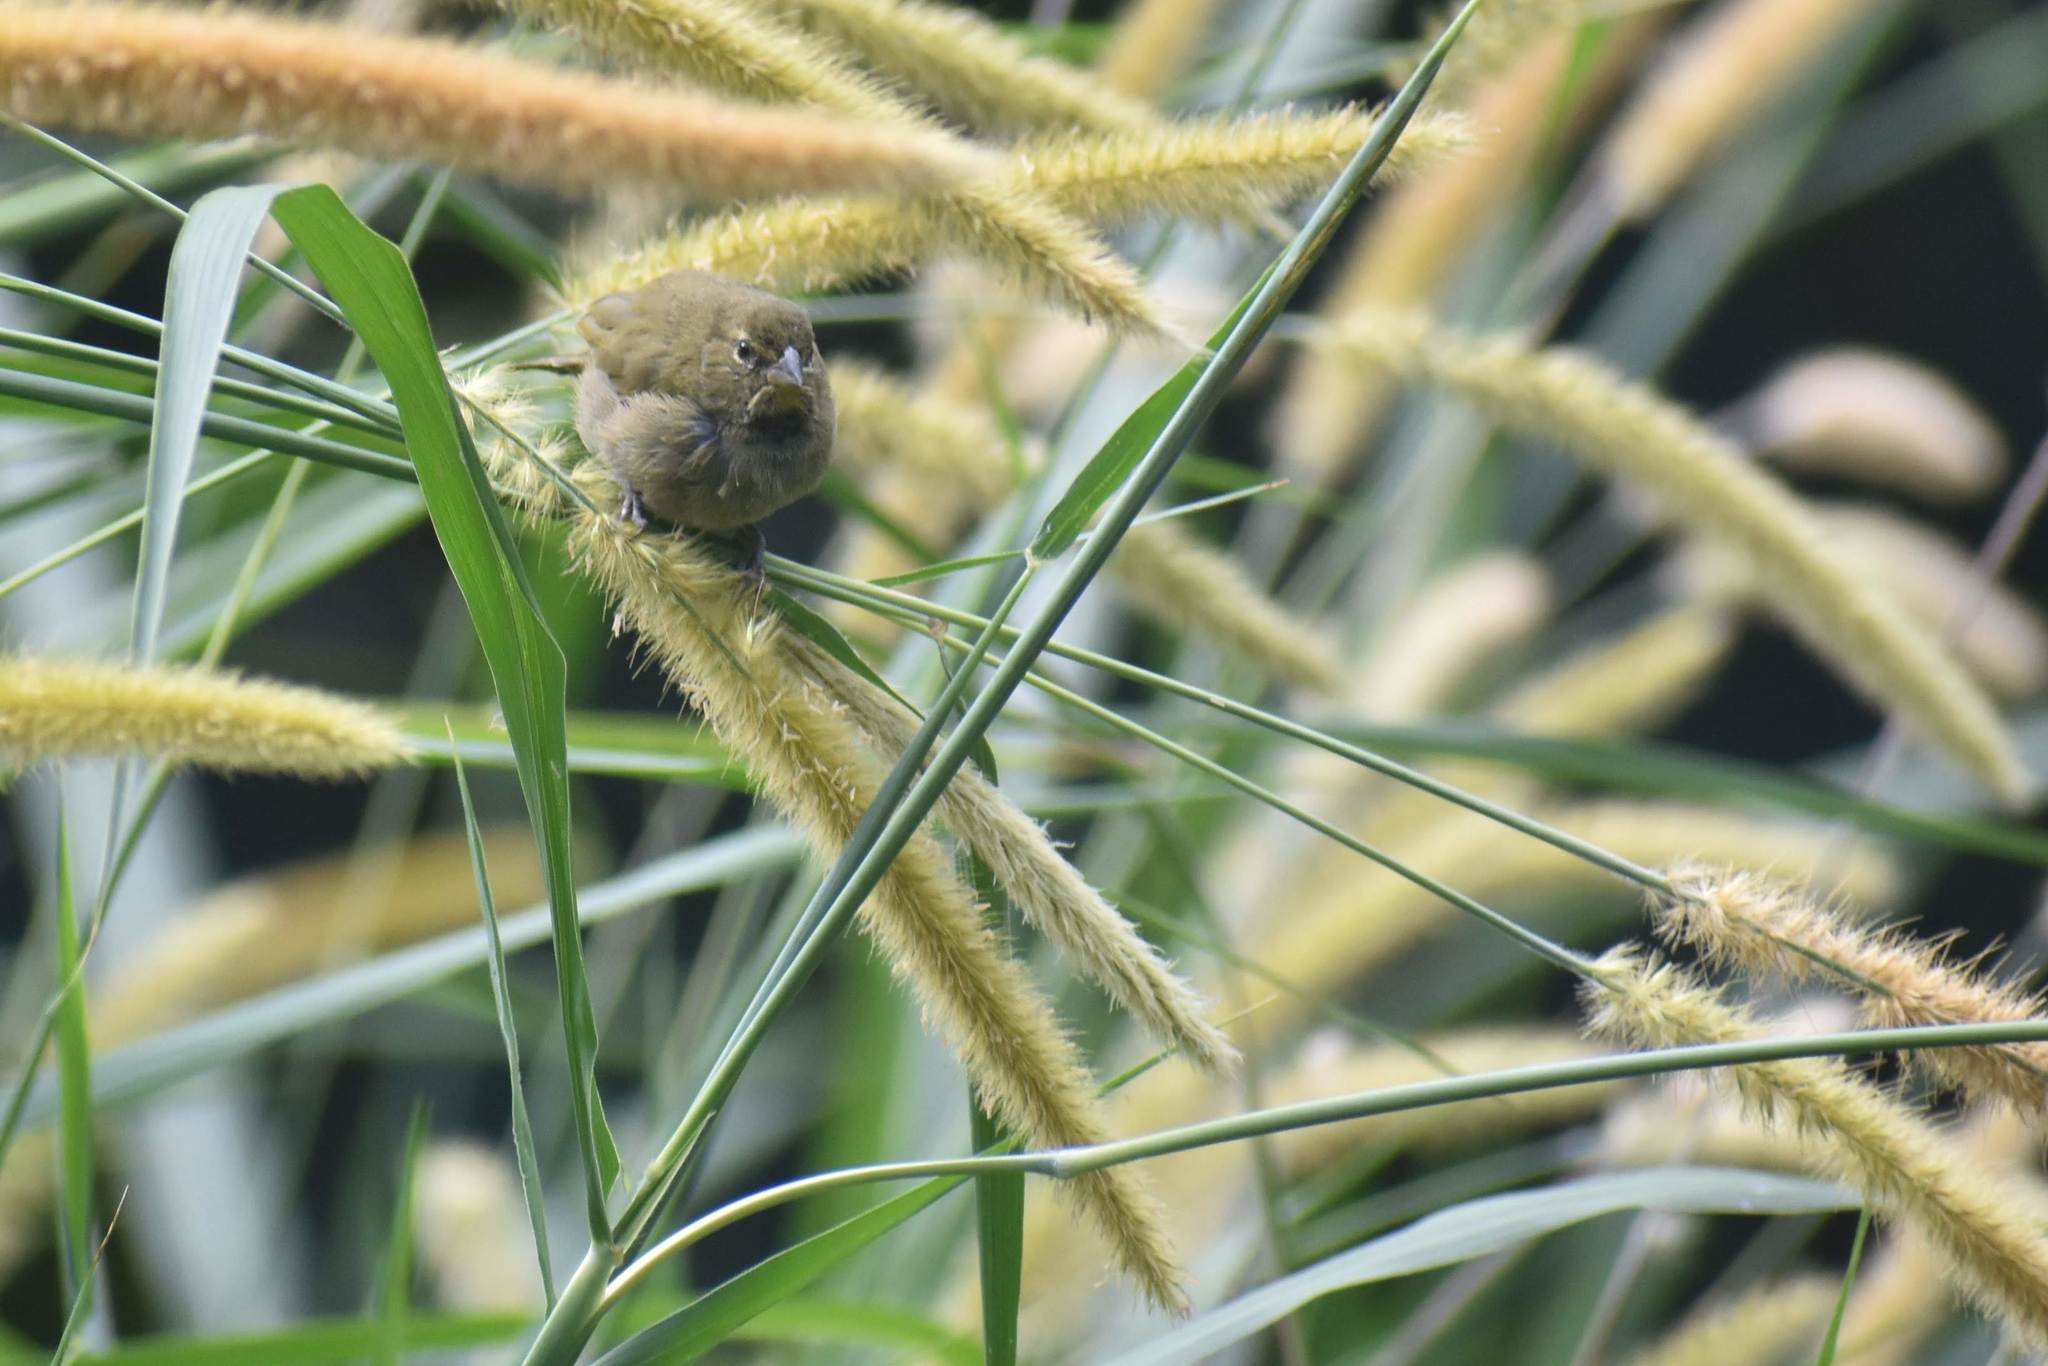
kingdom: Animalia
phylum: Chordata
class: Aves
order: Passeriformes
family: Thraupidae
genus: Tiaris
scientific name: Tiaris olivaceus
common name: Yellow-faced grassquit
